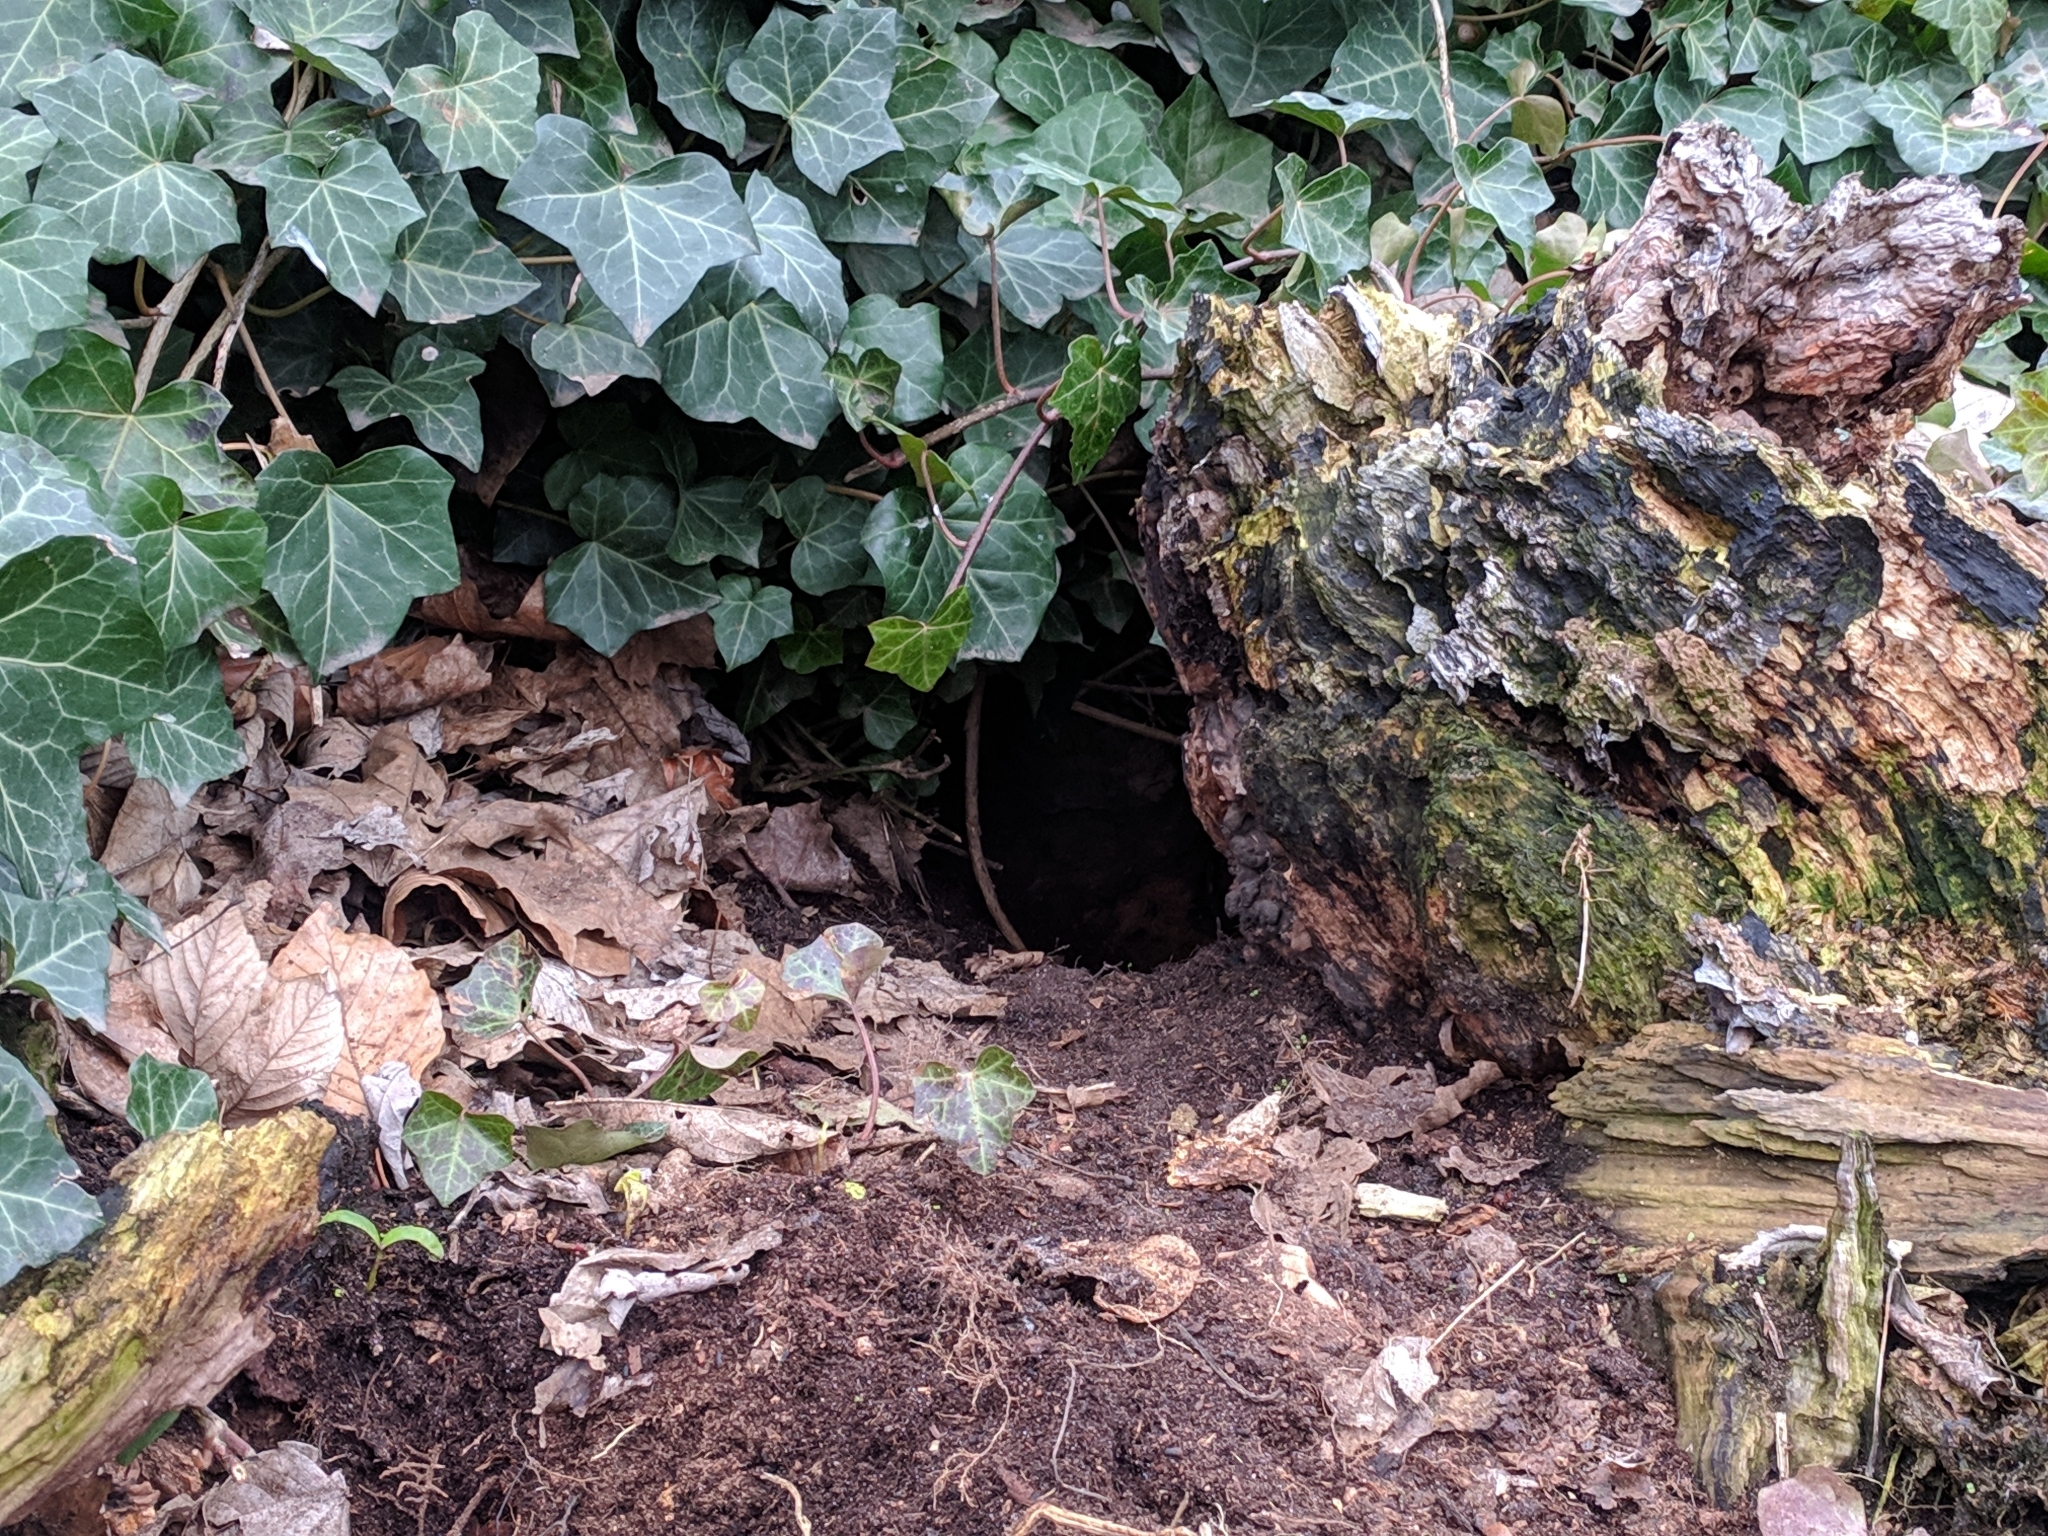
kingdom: Animalia
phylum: Chordata
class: Mammalia
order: Lagomorpha
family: Leporidae
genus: Oryctolagus
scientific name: Oryctolagus cuniculus
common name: European rabbit
